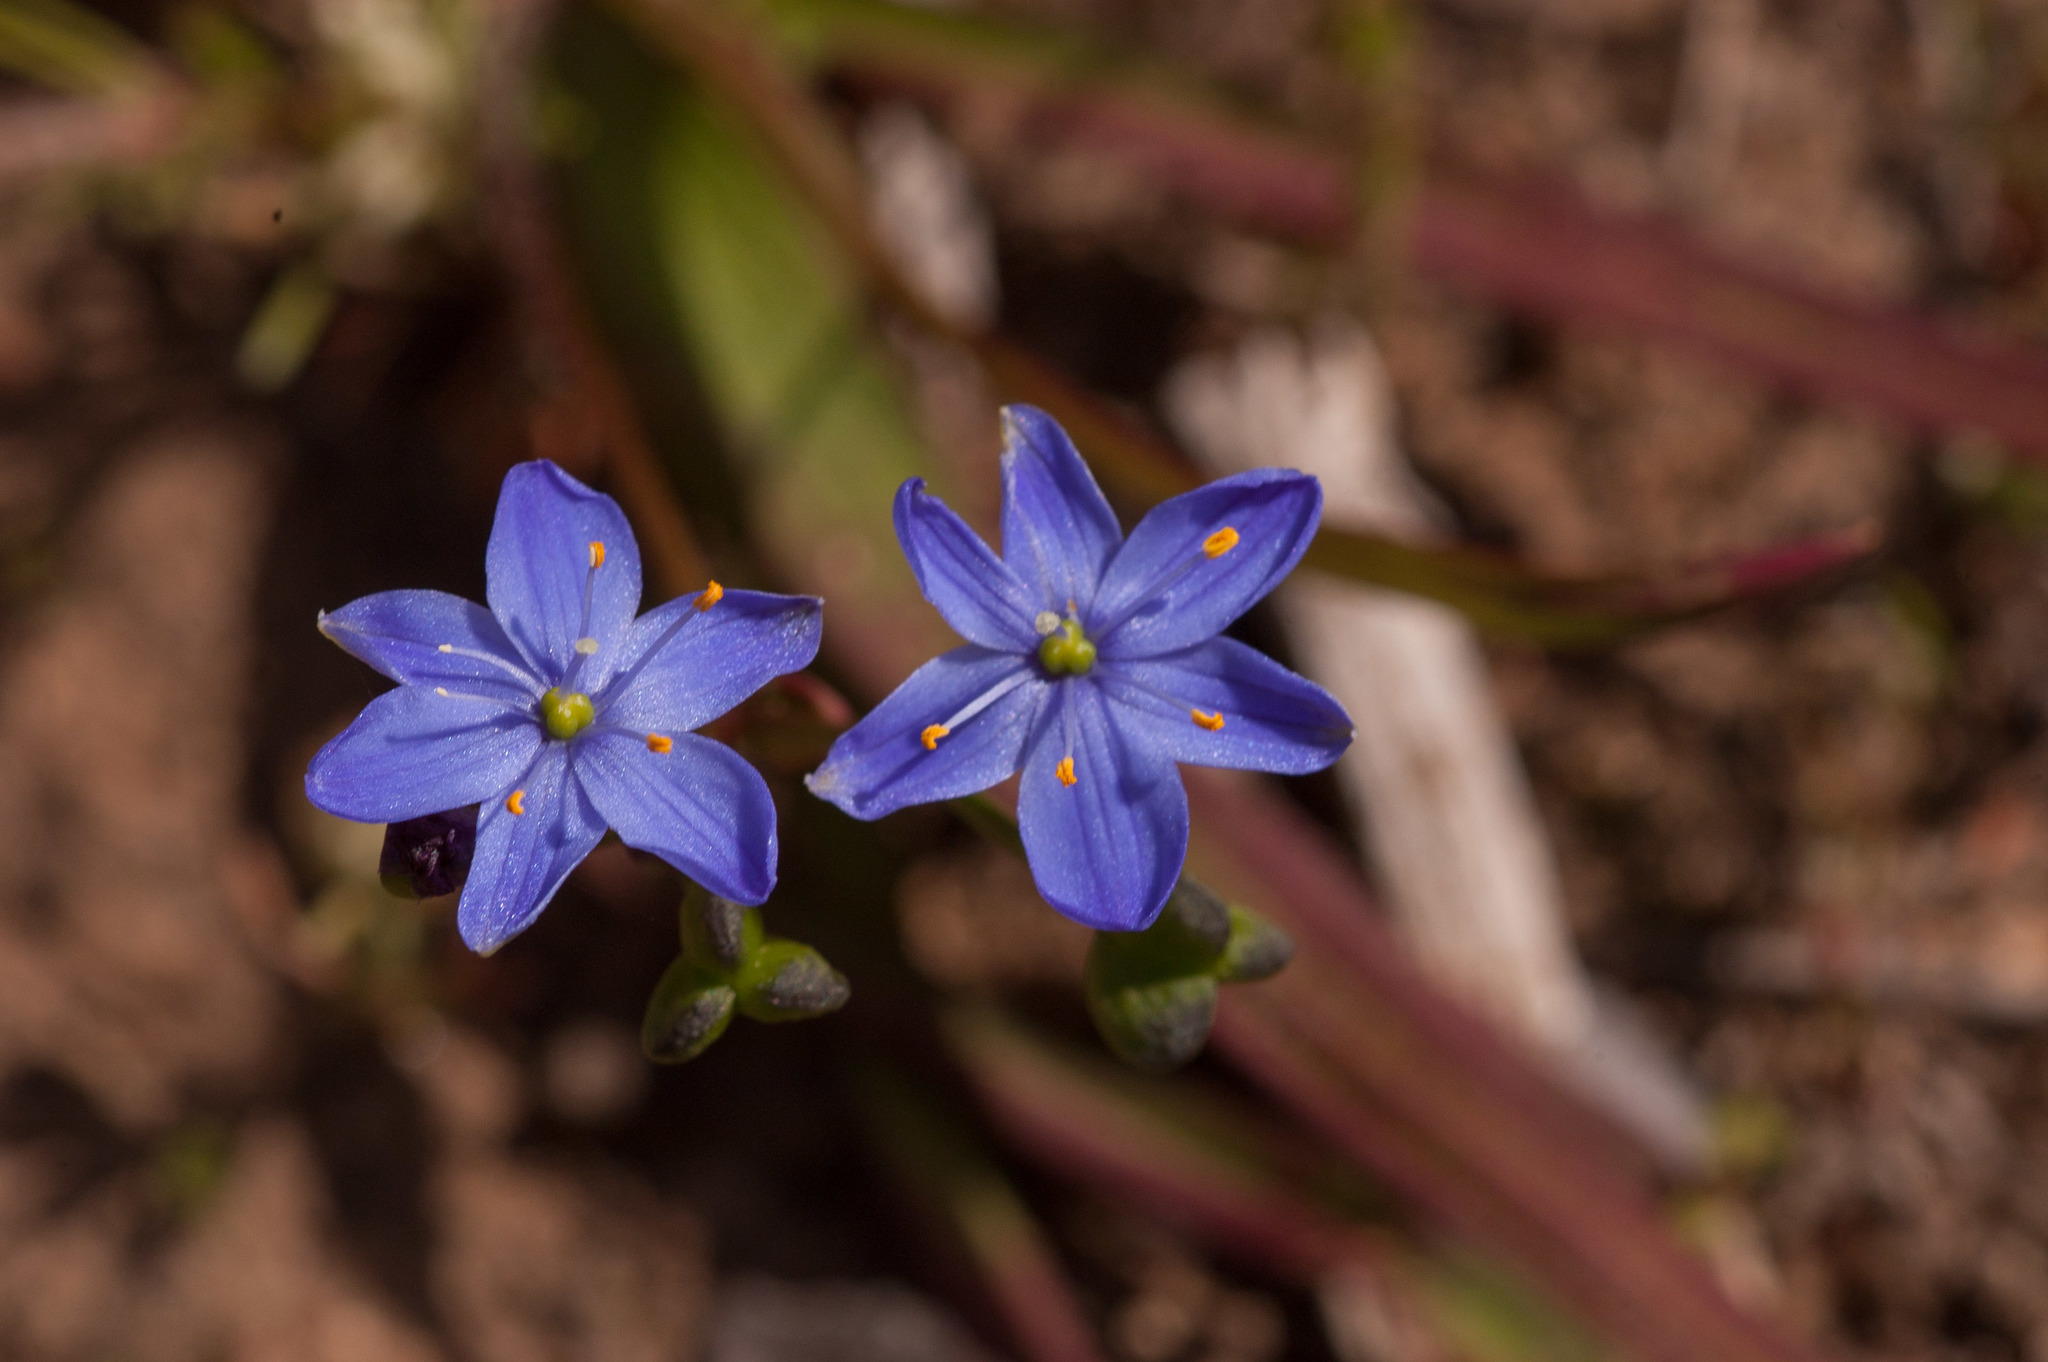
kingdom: Plantae
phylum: Tracheophyta
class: Liliopsida
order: Asparagales
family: Asphodelaceae
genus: Chamaescilla
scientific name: Chamaescilla corymbosa
